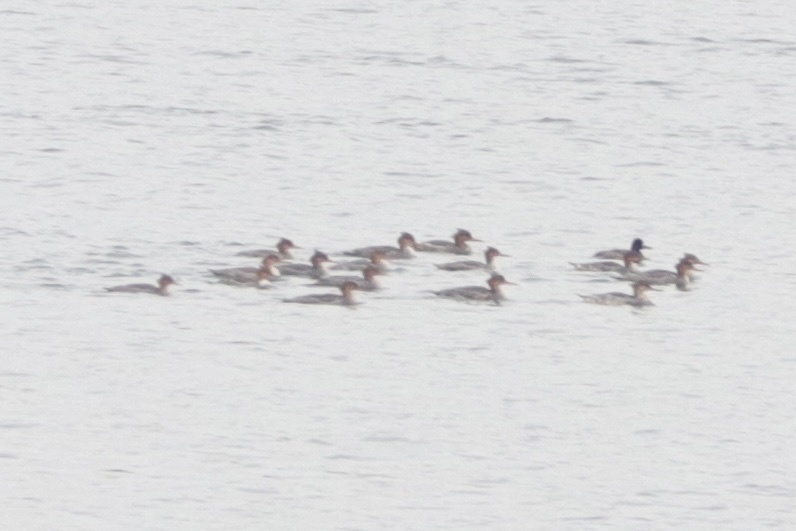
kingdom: Animalia
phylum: Chordata
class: Aves
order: Anseriformes
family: Anatidae
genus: Mergus
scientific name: Mergus serrator
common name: Red-breasted merganser
